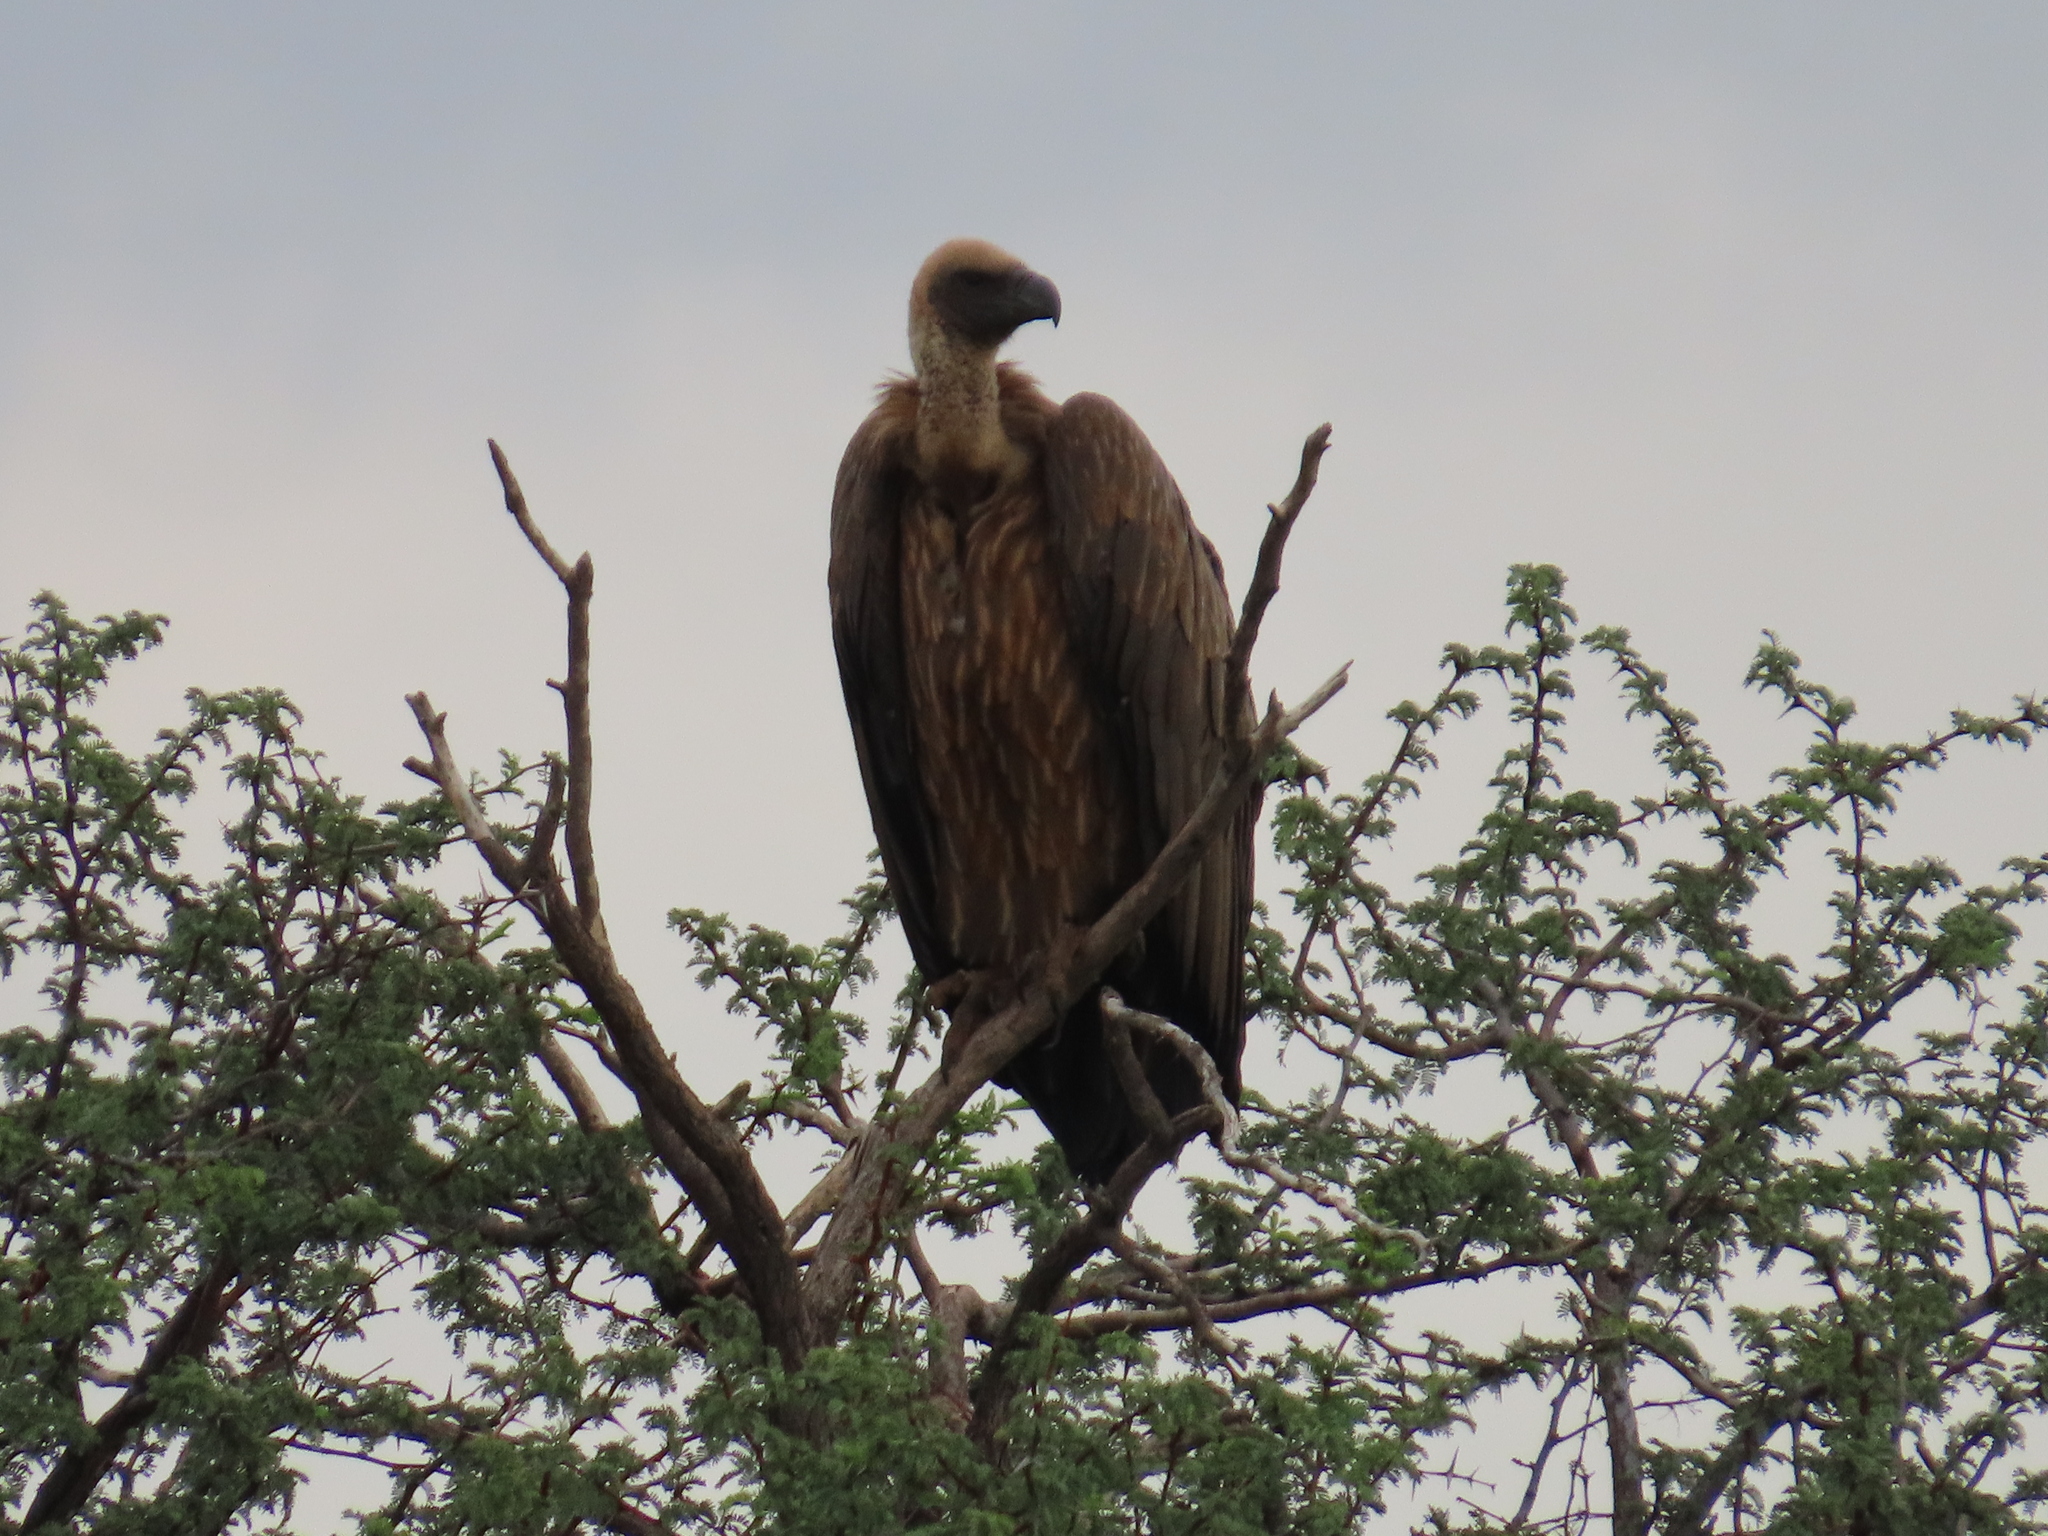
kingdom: Animalia
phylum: Chordata
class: Aves
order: Accipitriformes
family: Accipitridae
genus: Gyps
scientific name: Gyps africanus
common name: White-backed vulture
